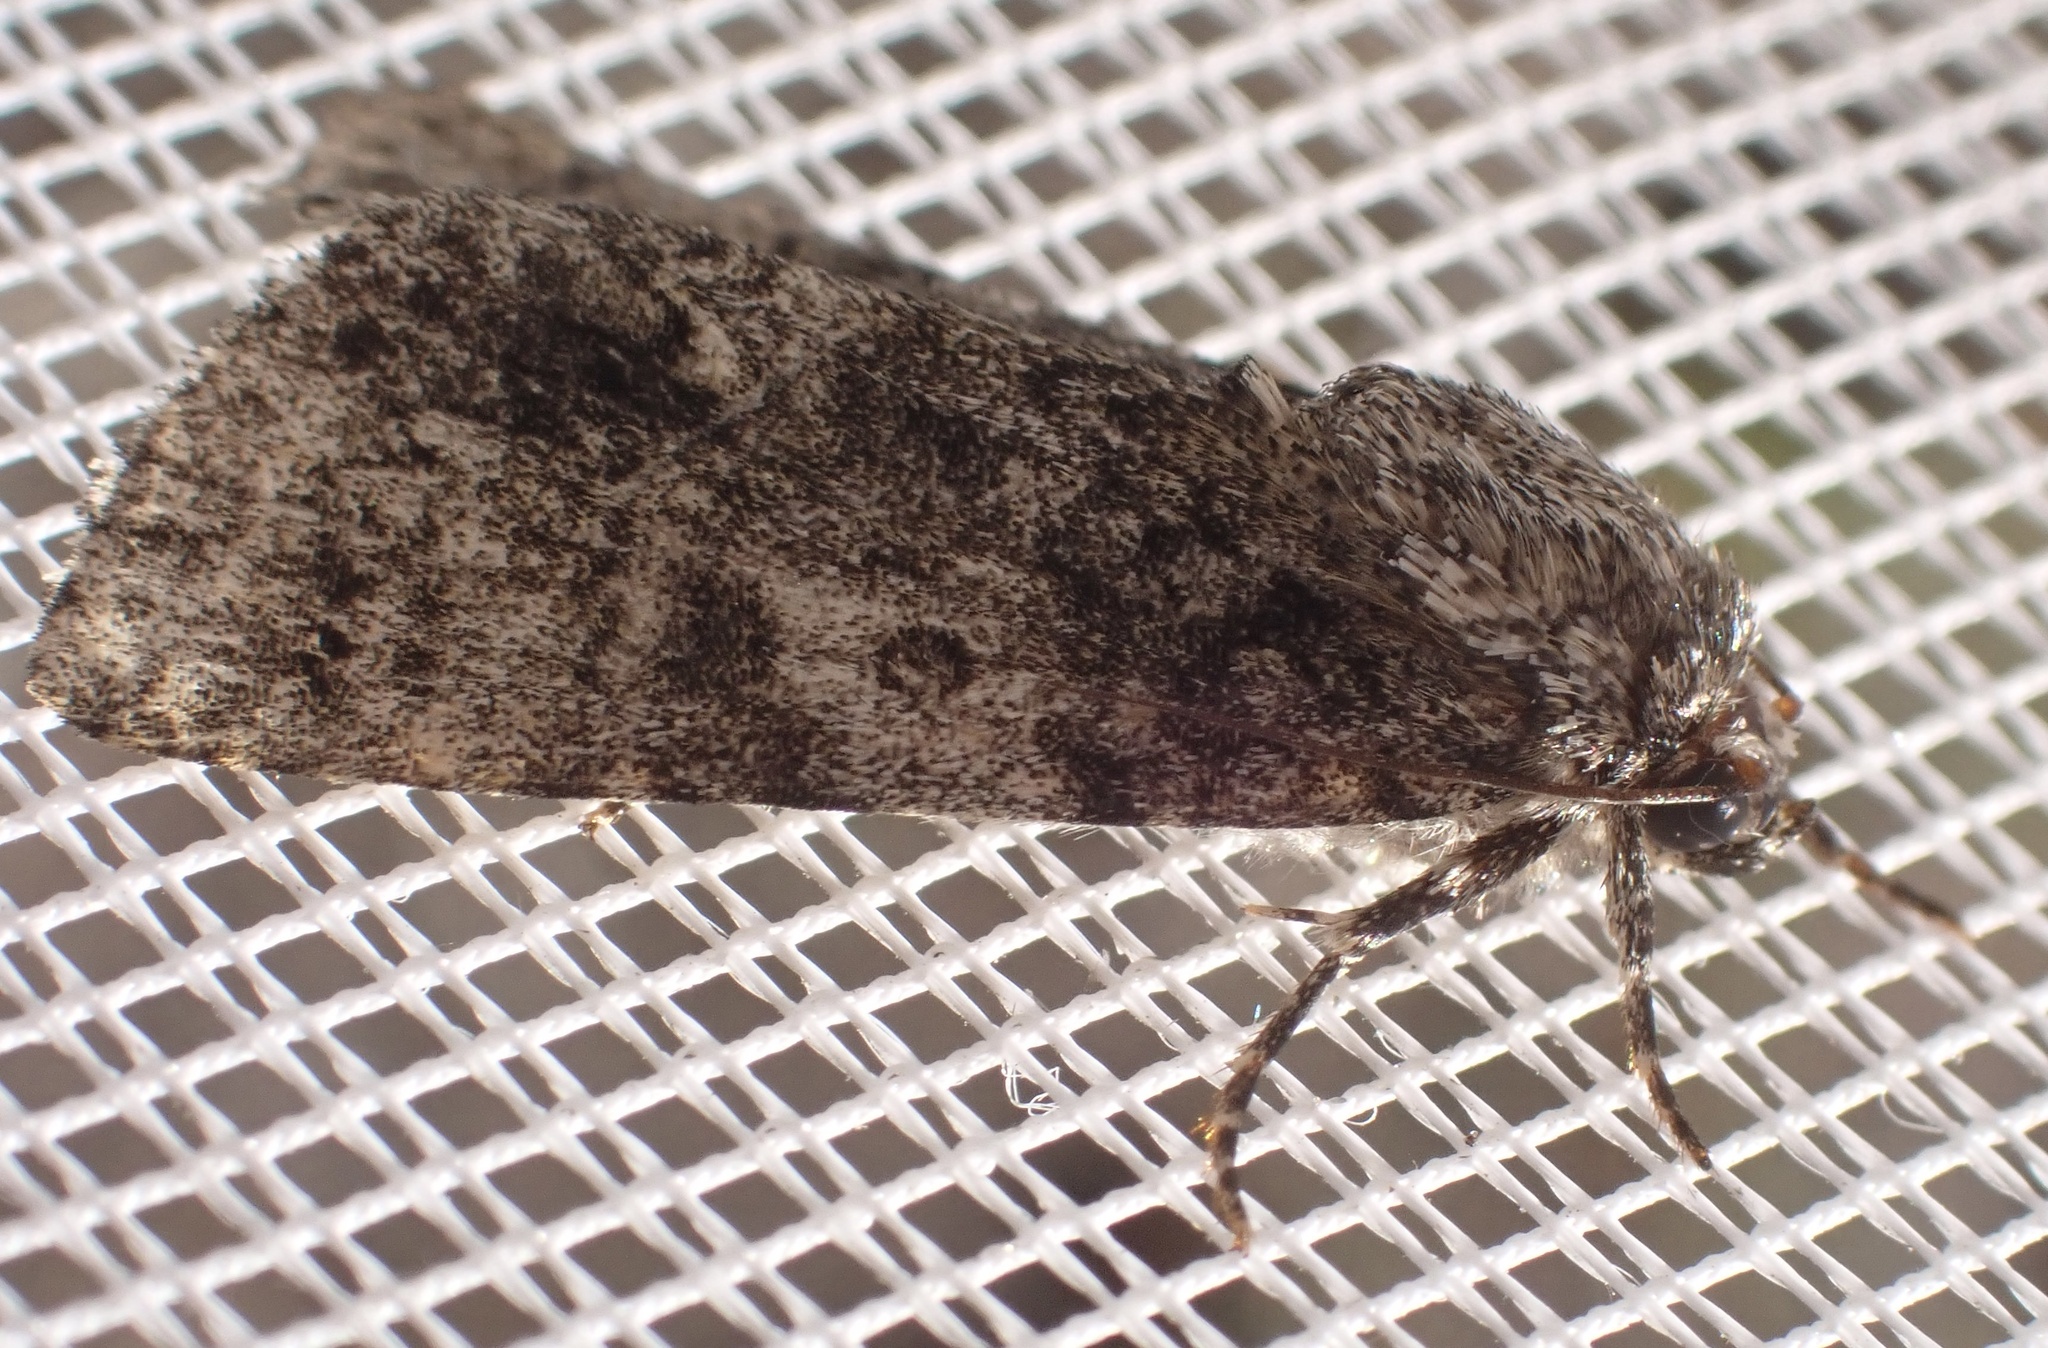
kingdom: Animalia
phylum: Arthropoda
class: Insecta
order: Lepidoptera
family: Noctuidae
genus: Acronicta
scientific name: Acronicta rumicis
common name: Knot grass
